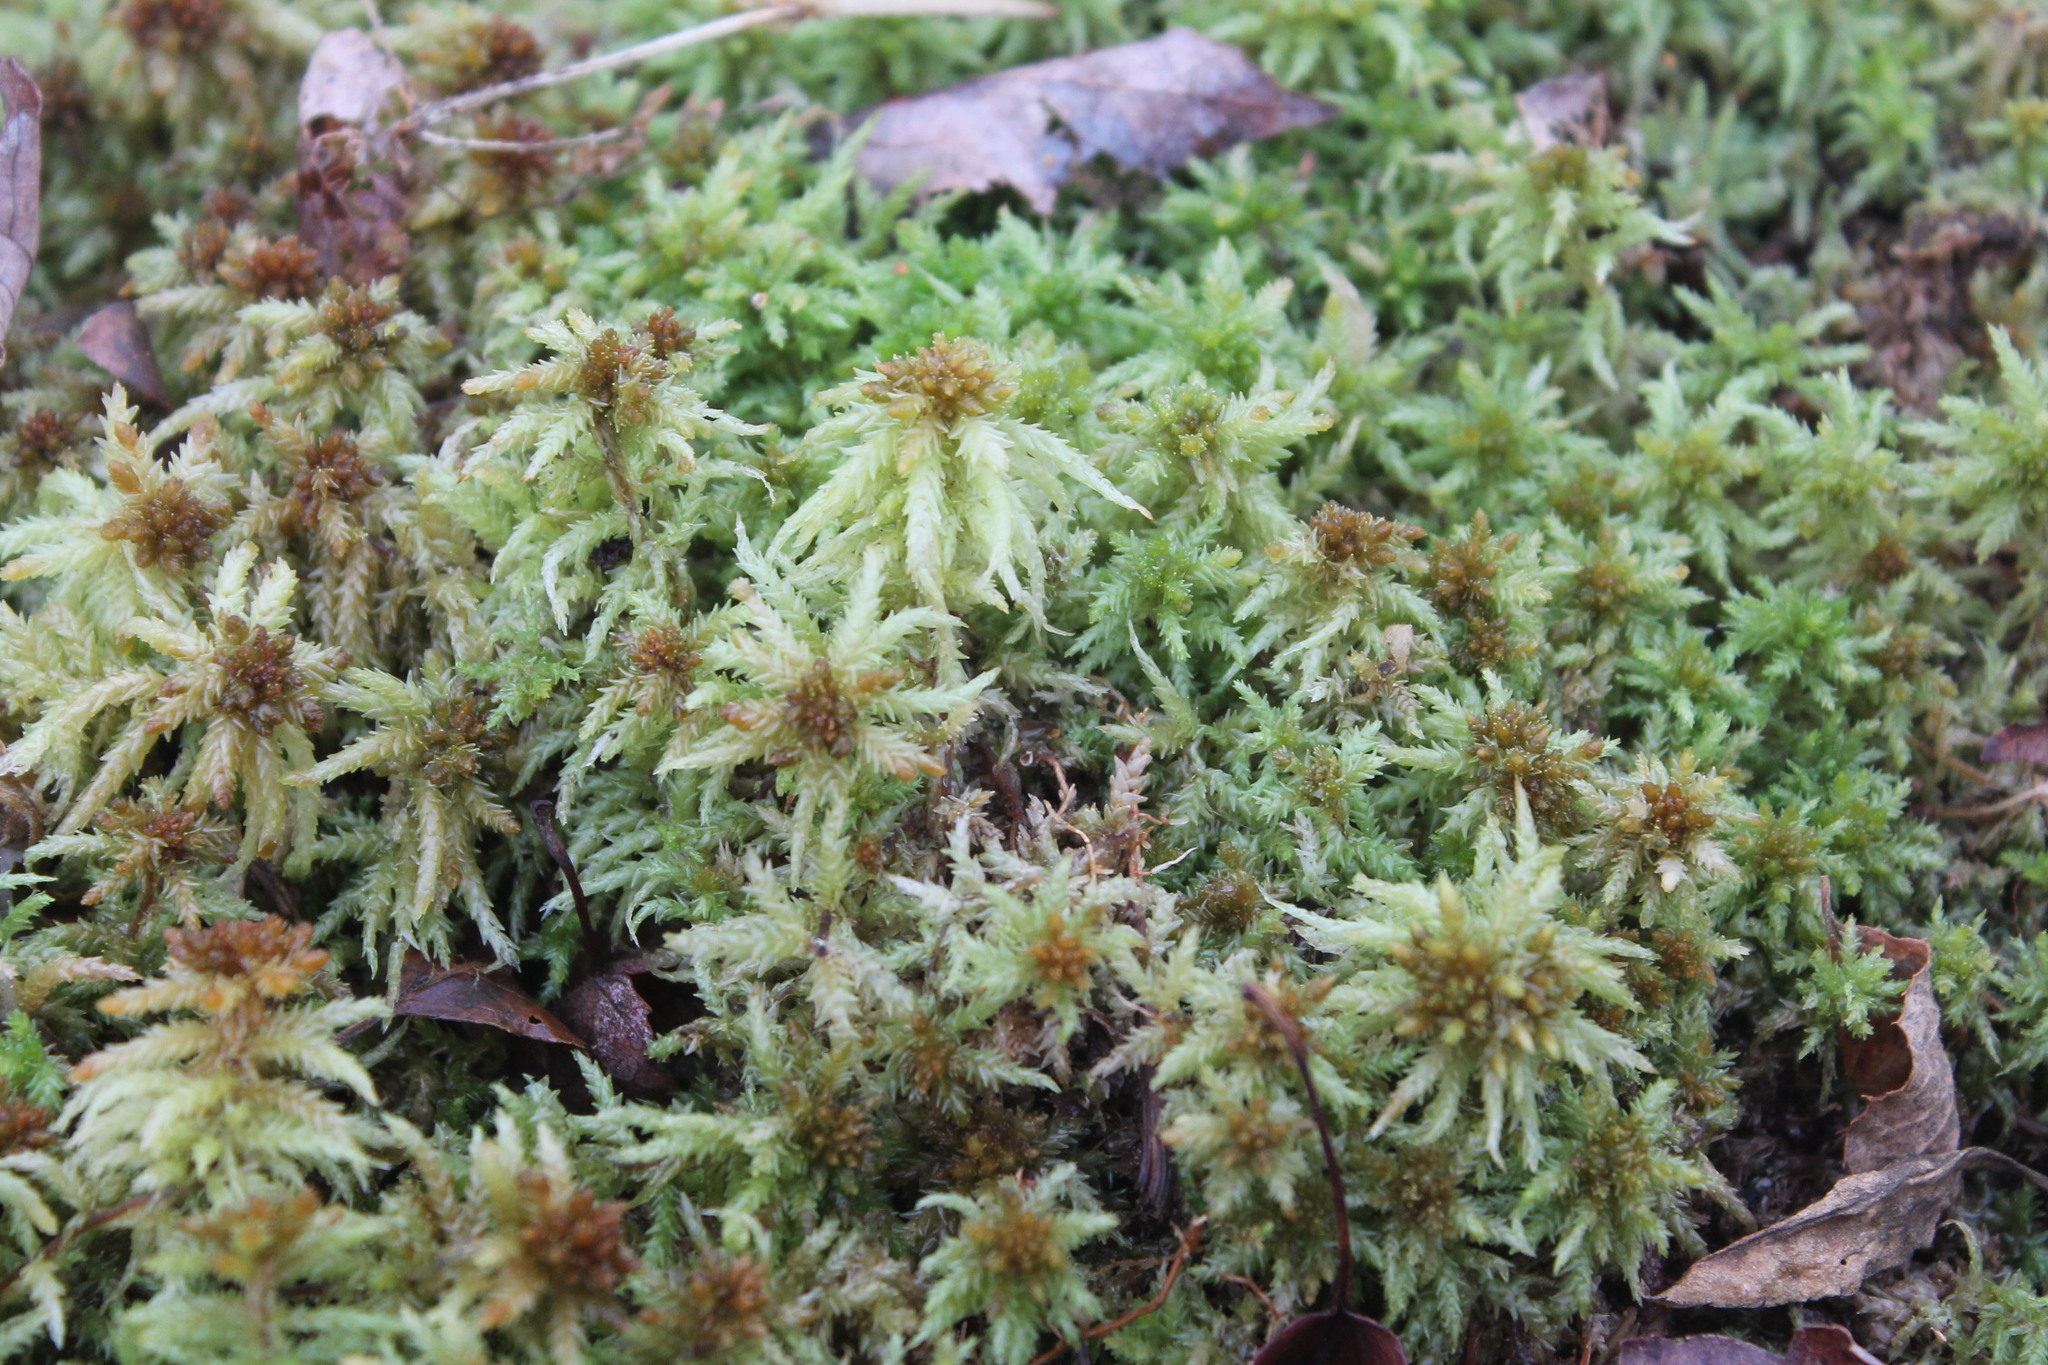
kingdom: Plantae
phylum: Bryophyta
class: Sphagnopsida
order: Sphagnales
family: Sphagnaceae
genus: Sphagnum
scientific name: Sphagnum palustre
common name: Blunt-leaved bog-moss
